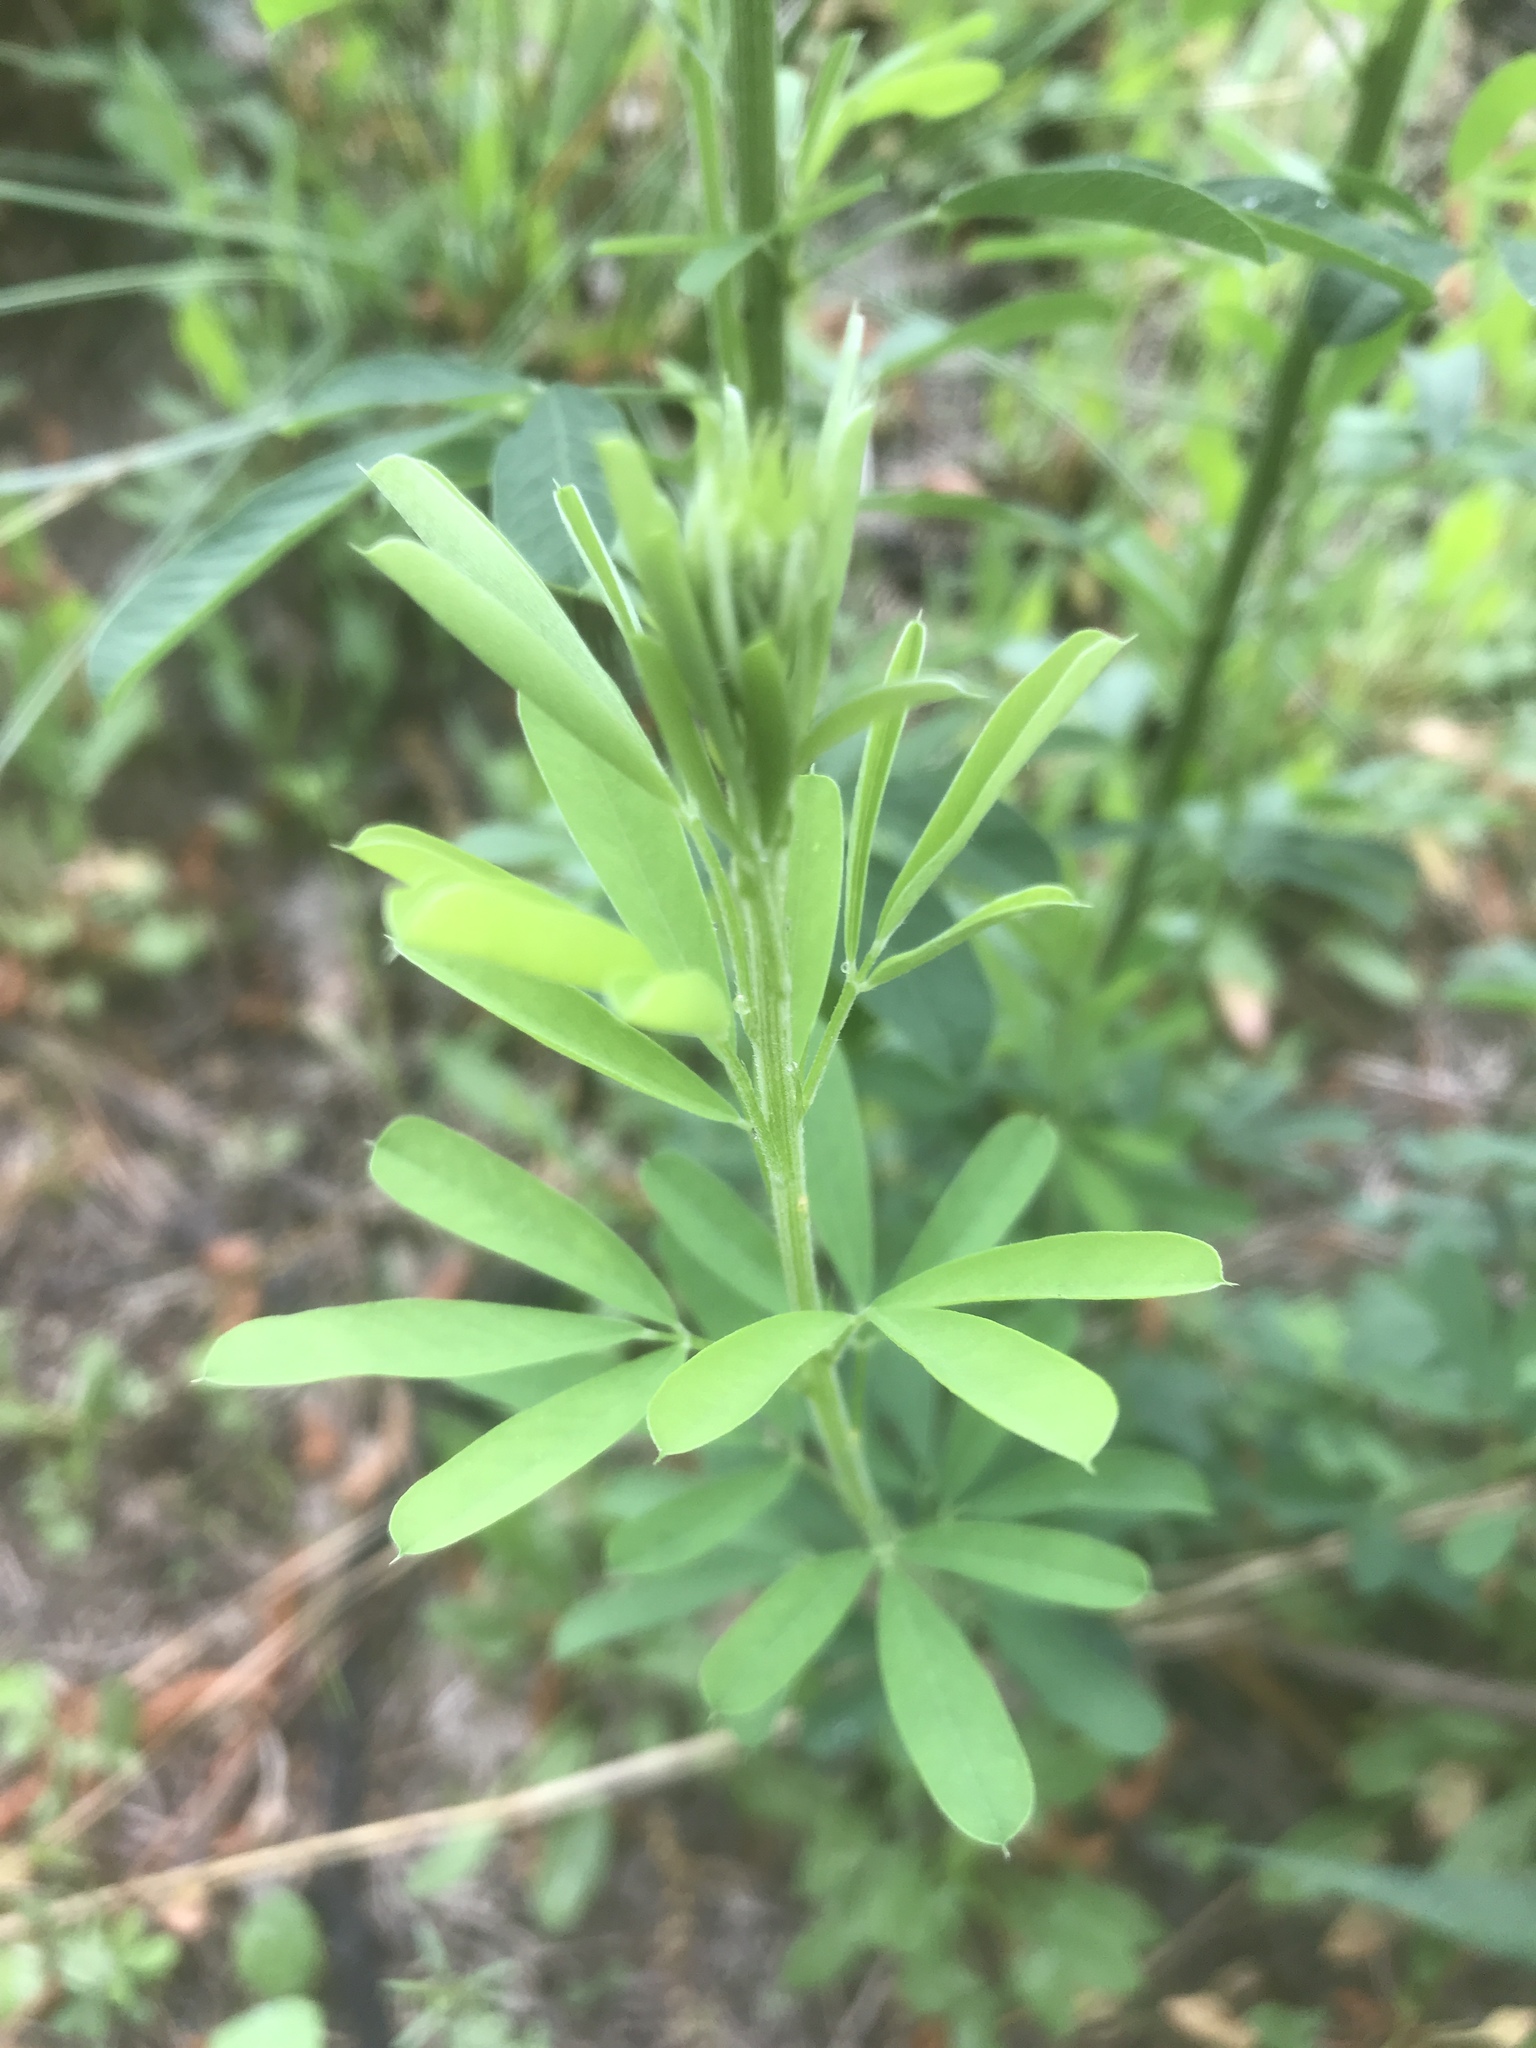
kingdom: Plantae
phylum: Tracheophyta
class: Magnoliopsida
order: Fabales
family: Fabaceae
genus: Lespedeza
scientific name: Lespedeza cuneata
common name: Chinese bush-clover
